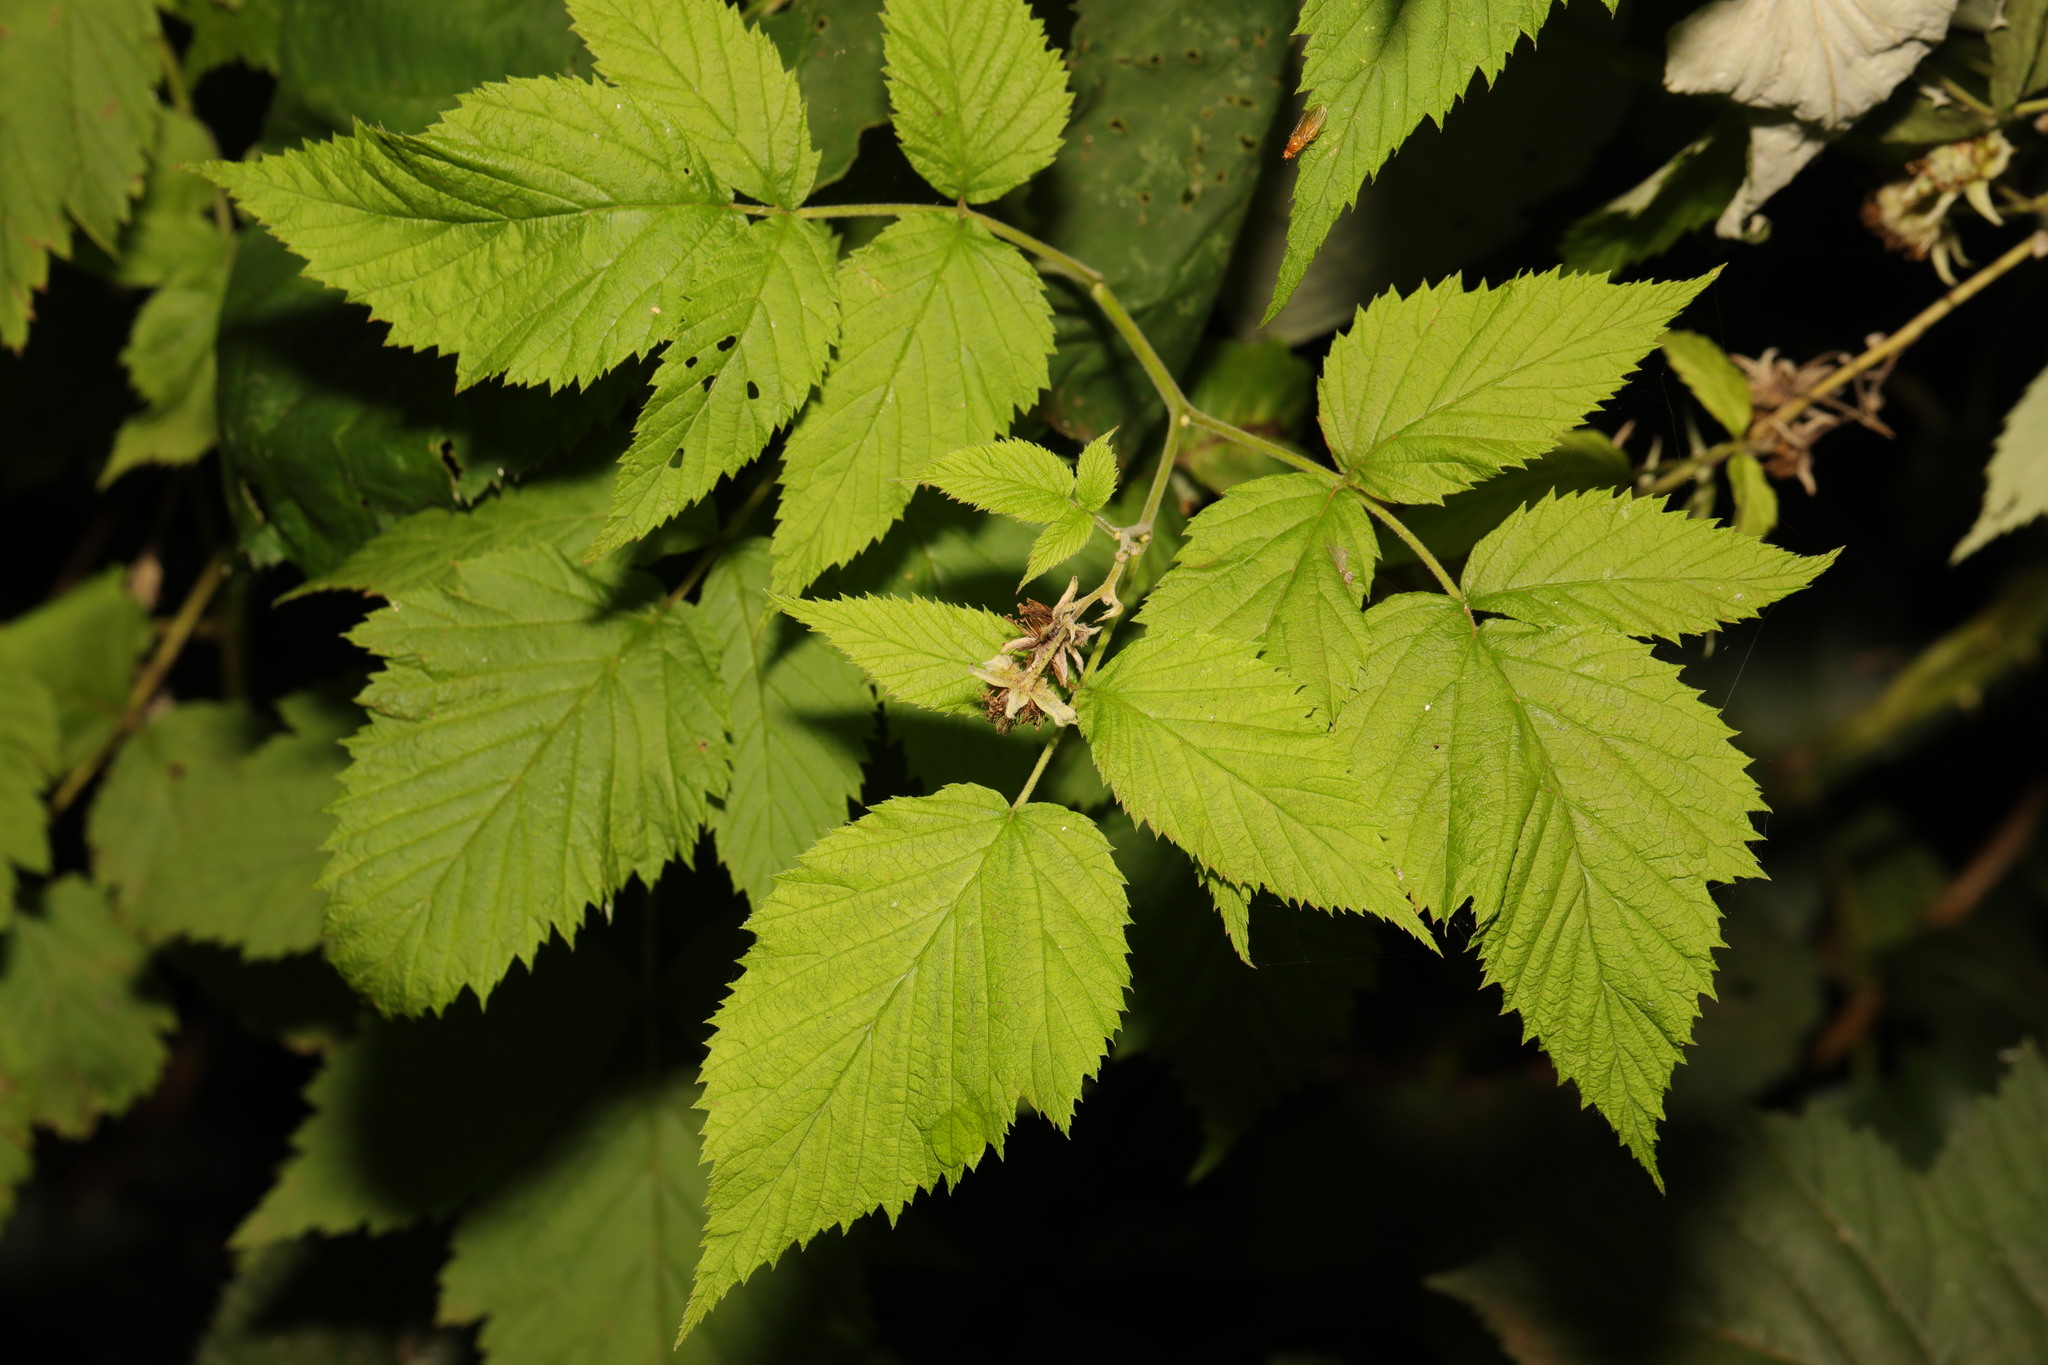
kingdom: Plantae
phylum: Tracheophyta
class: Magnoliopsida
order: Rosales
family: Rosaceae
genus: Rubus
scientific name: Rubus idaeus
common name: Raspberry
